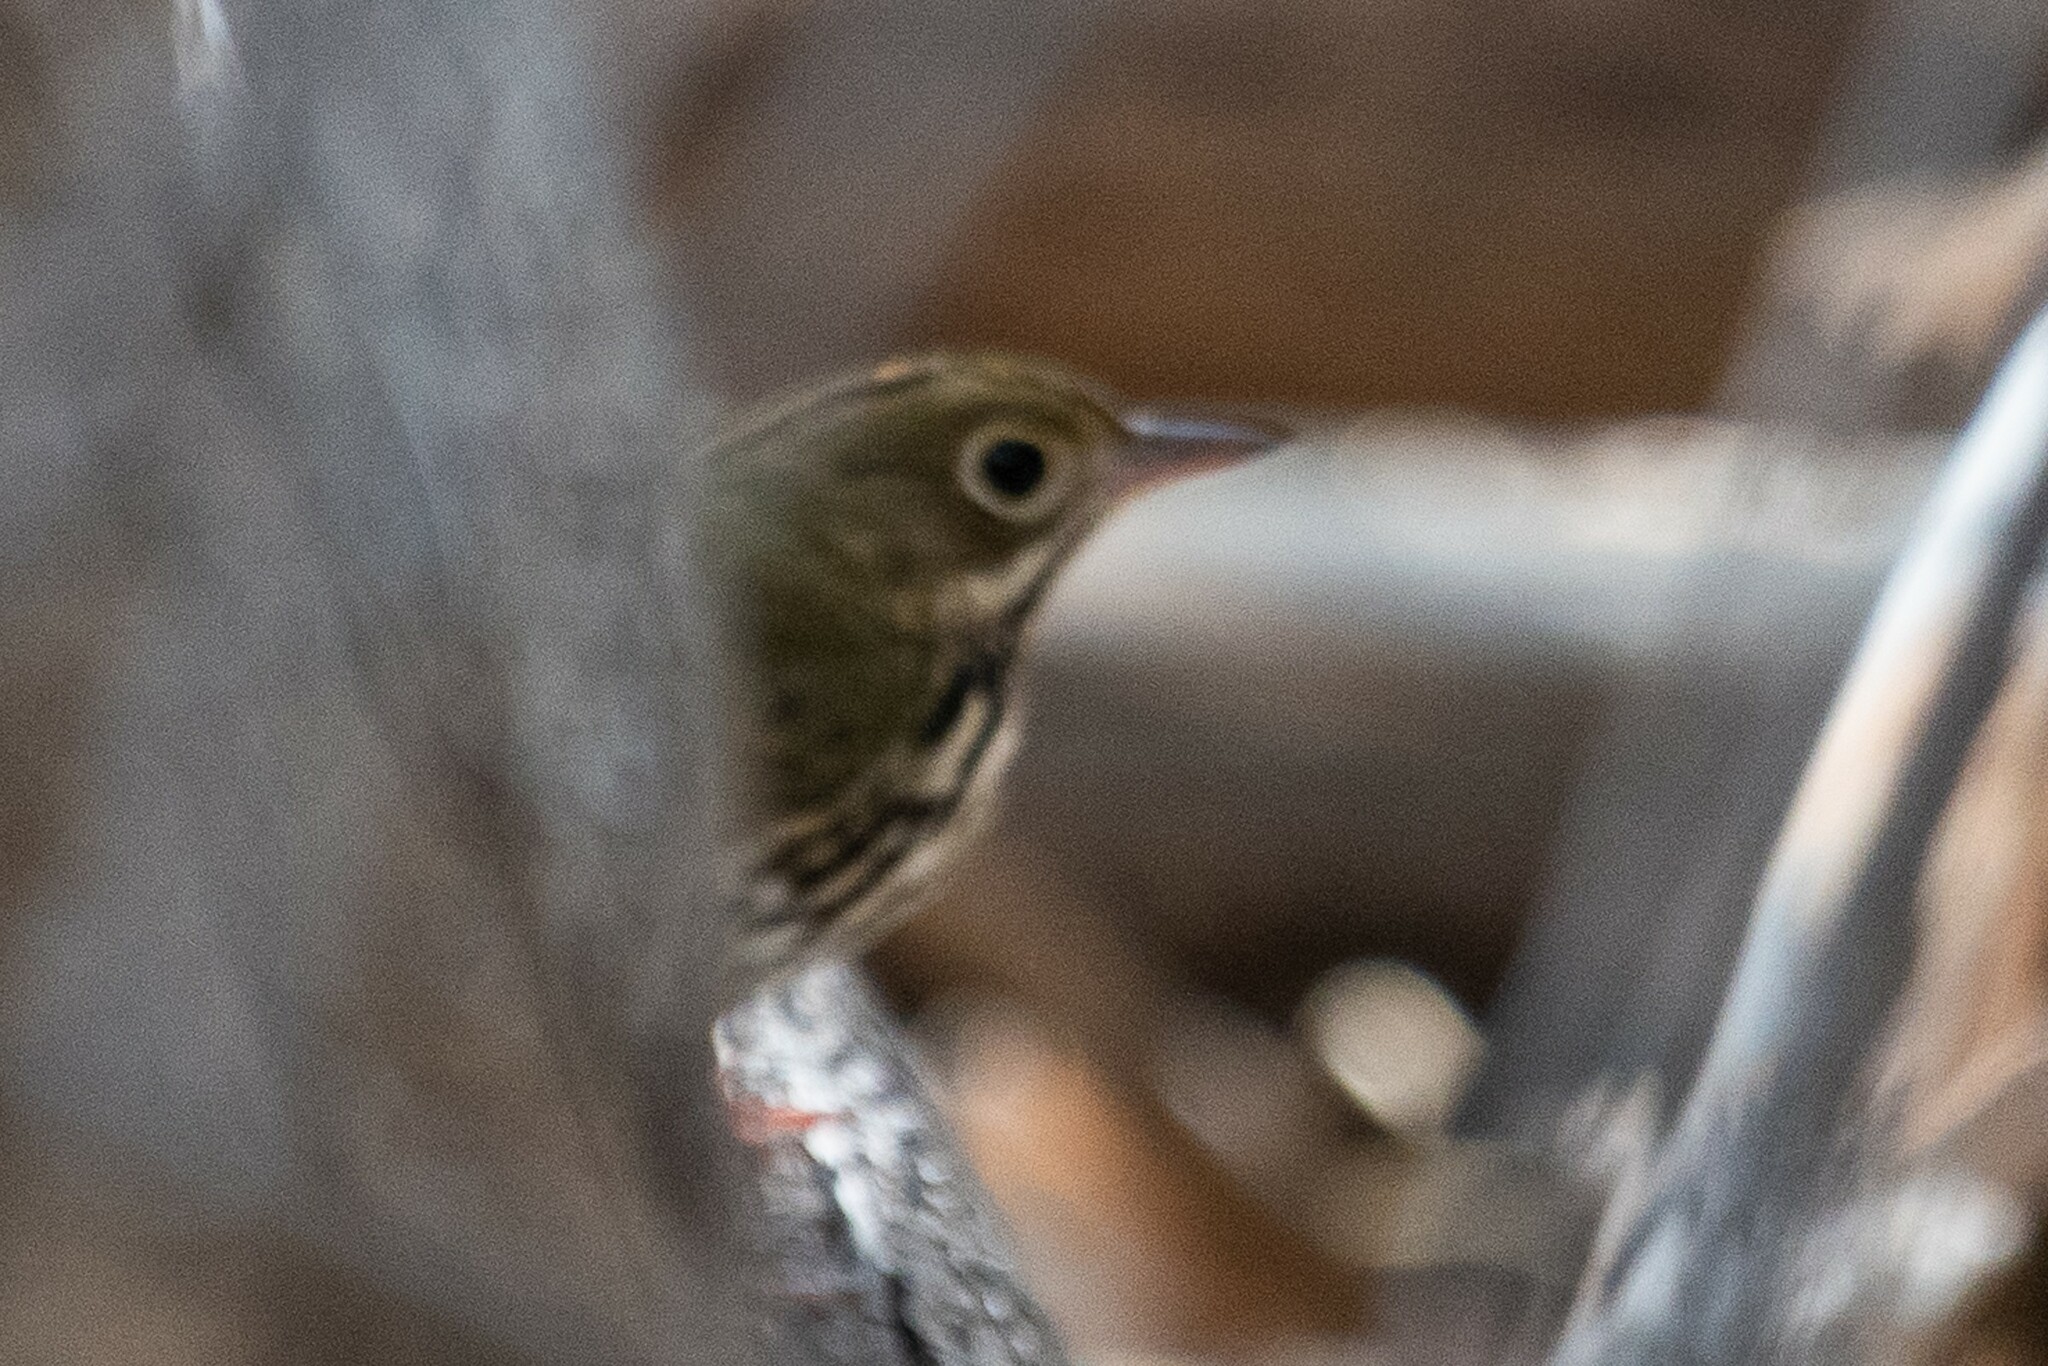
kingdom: Animalia
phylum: Chordata
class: Aves
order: Passeriformes
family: Parulidae
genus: Seiurus
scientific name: Seiurus aurocapilla
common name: Ovenbird
